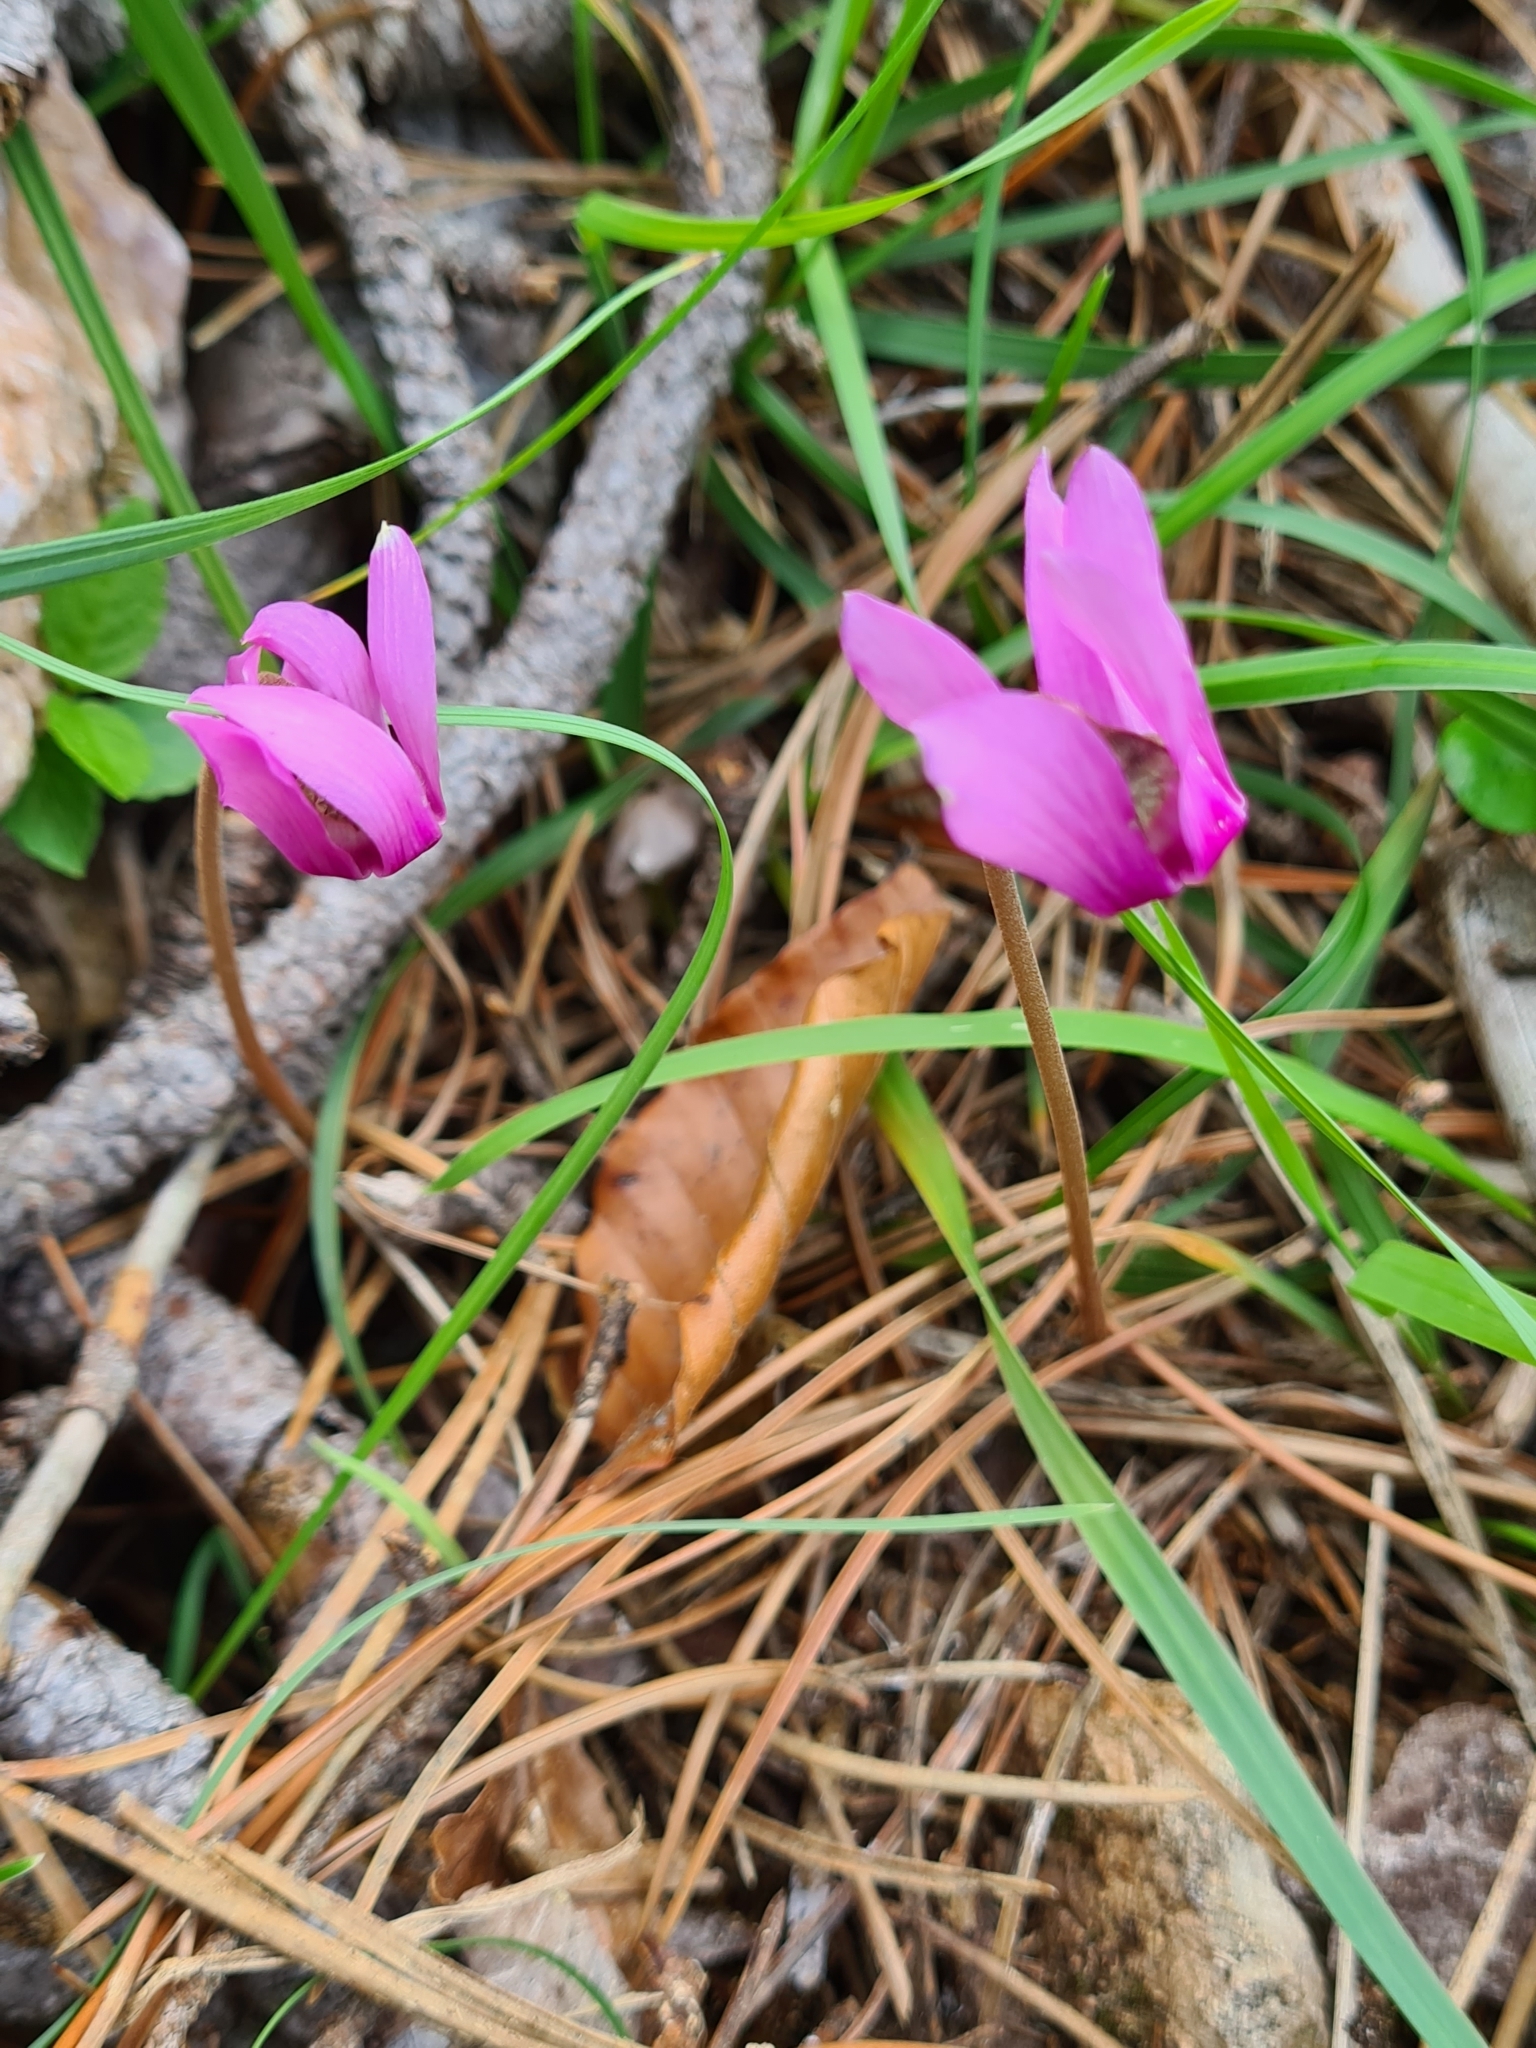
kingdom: Plantae
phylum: Tracheophyta
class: Magnoliopsida
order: Ericales
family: Primulaceae
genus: Cyclamen
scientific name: Cyclamen purpurascens
